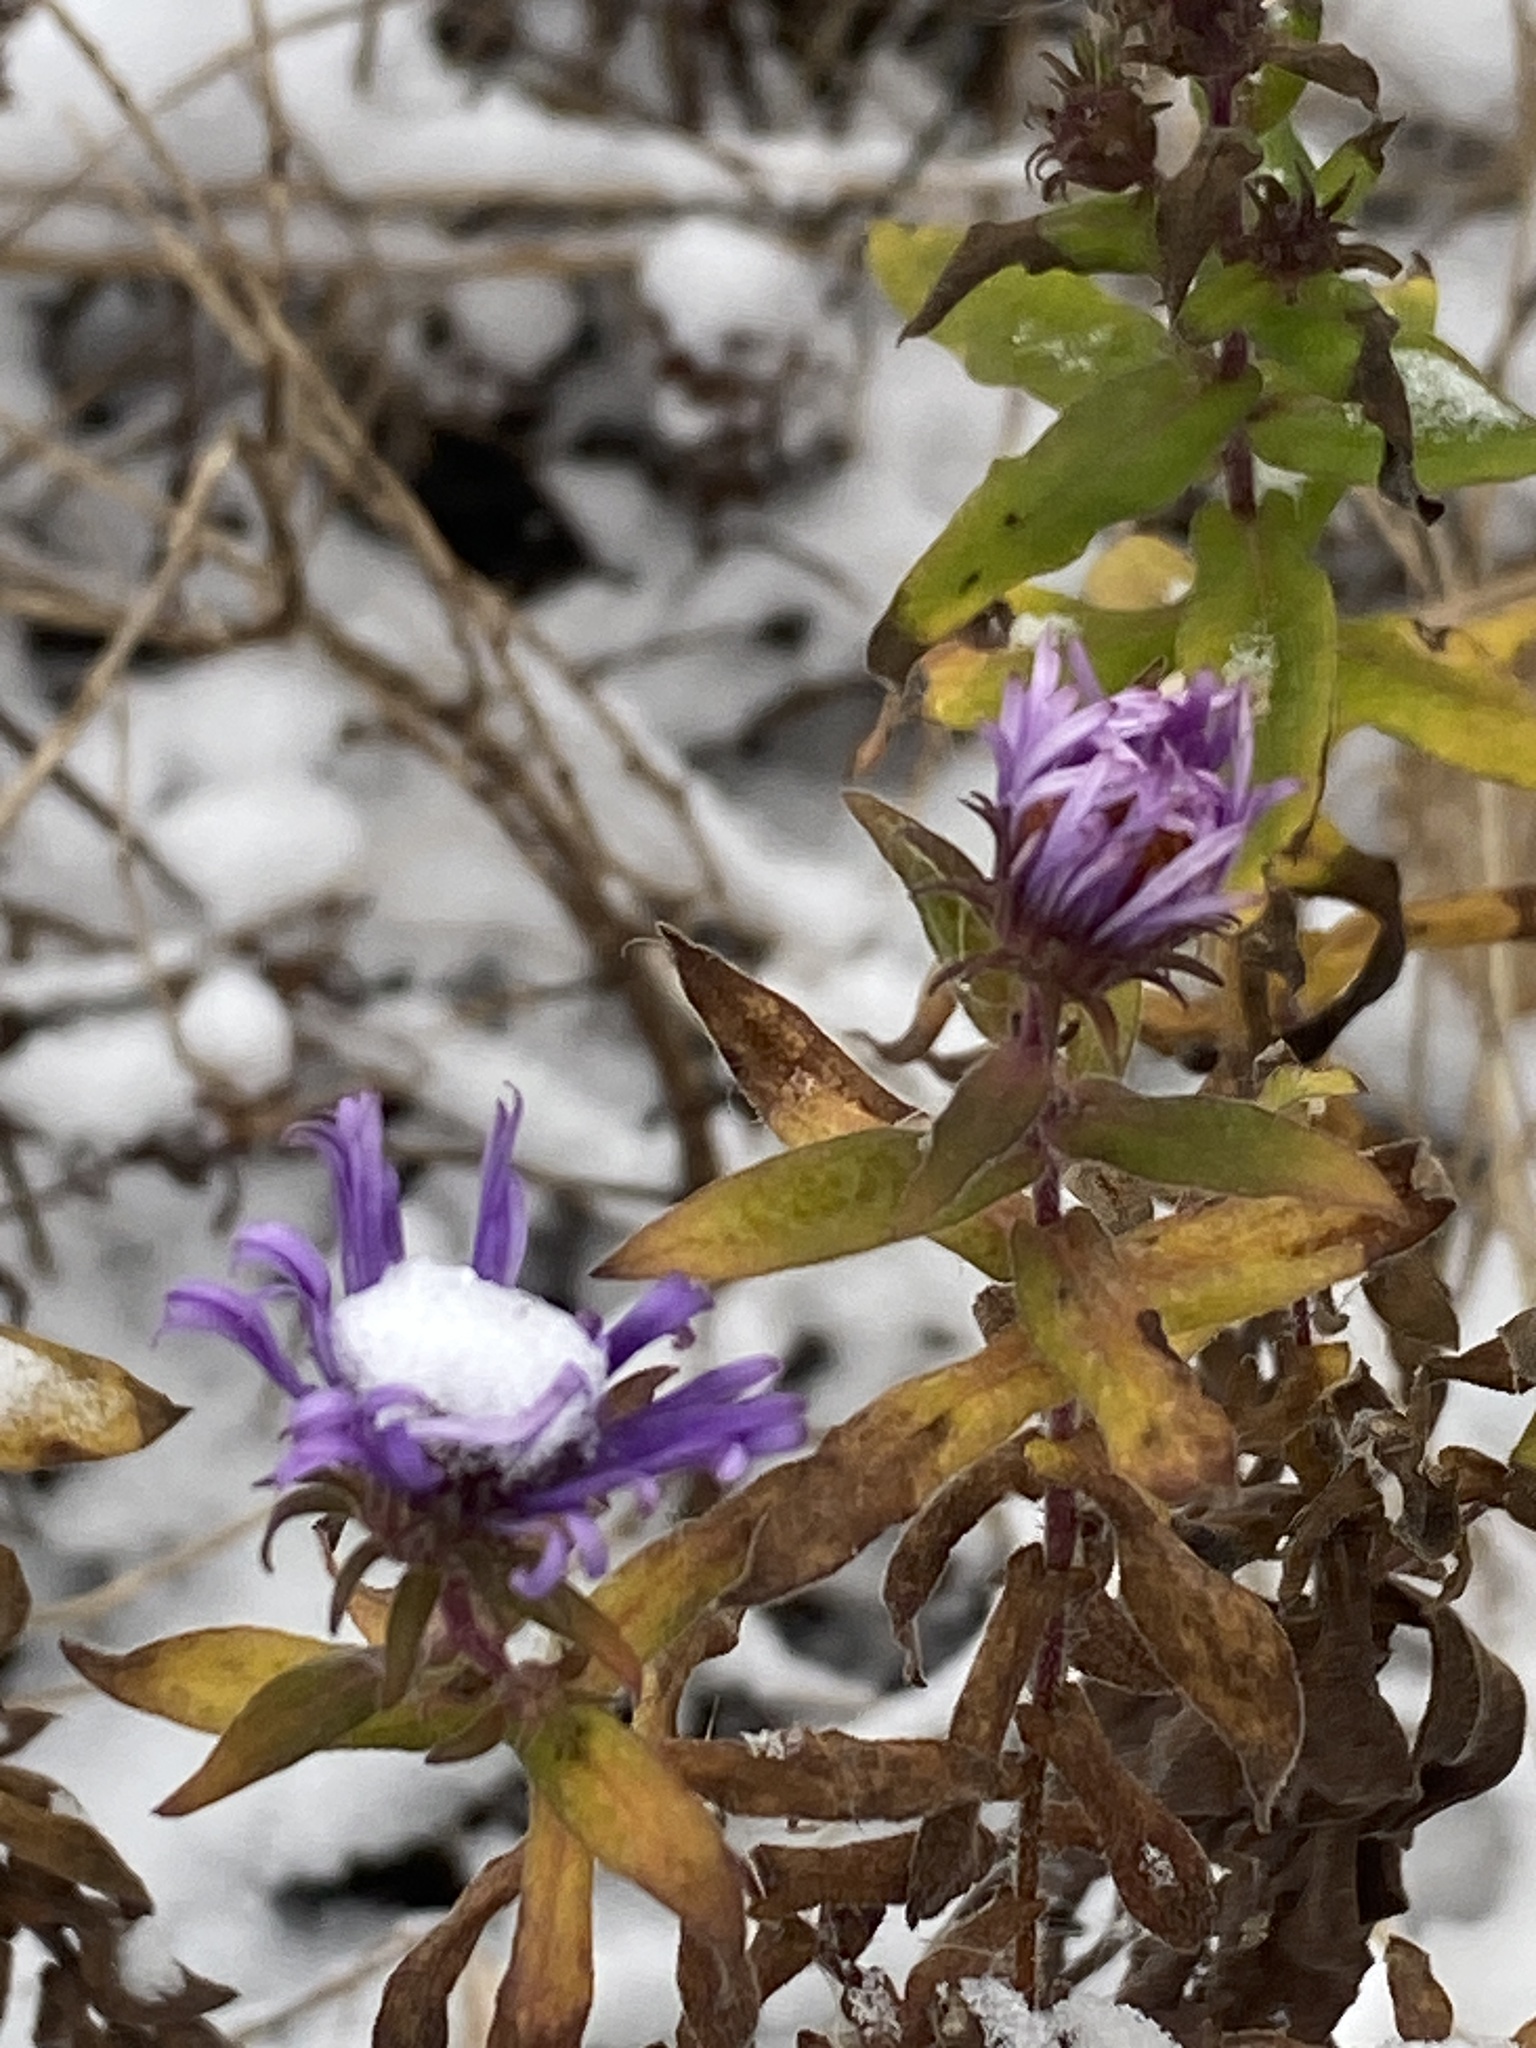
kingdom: Plantae
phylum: Tracheophyta
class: Magnoliopsida
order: Asterales
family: Asteraceae
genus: Symphyotrichum
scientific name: Symphyotrichum novae-angliae
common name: Michaelmas daisy
